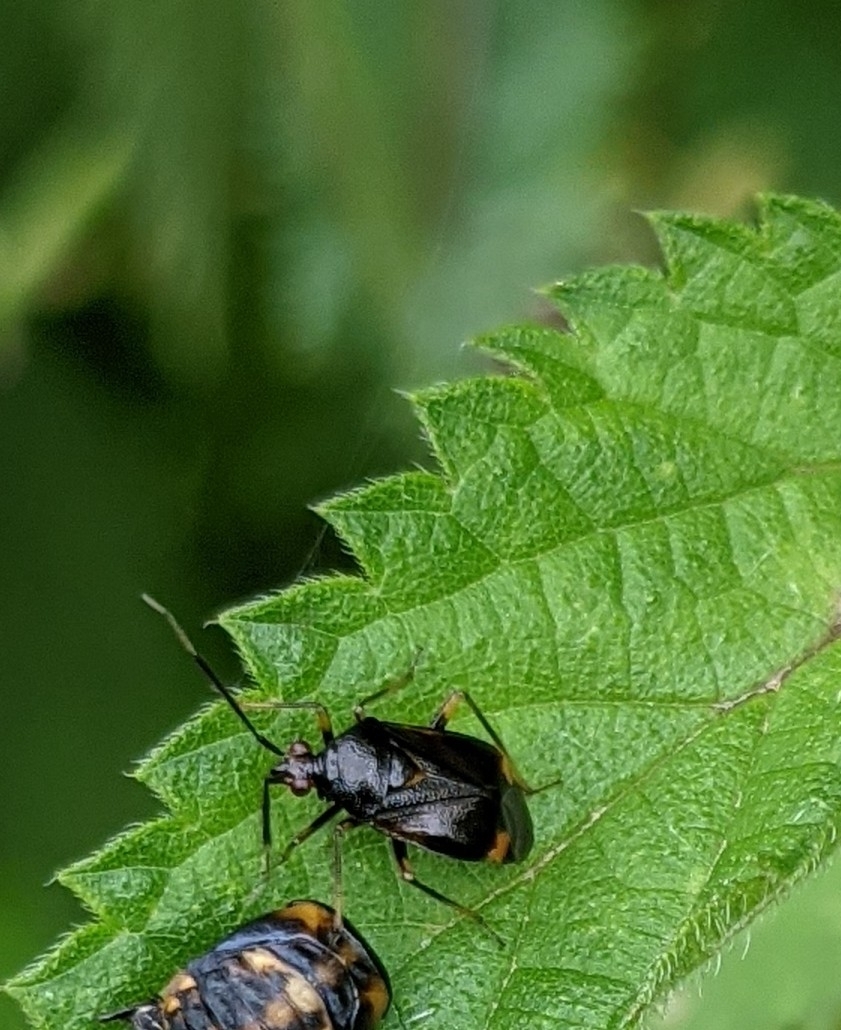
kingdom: Animalia
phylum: Arthropoda
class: Insecta
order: Hemiptera
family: Miridae
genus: Deraeocoris
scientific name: Deraeocoris ruber
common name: Plant bug
